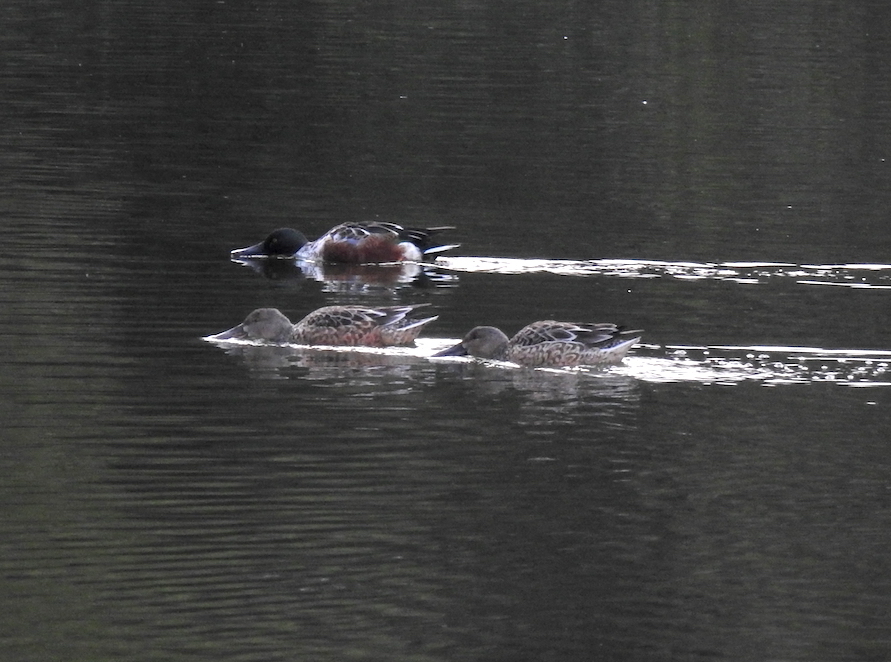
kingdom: Animalia
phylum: Chordata
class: Aves
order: Anseriformes
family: Anatidae
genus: Spatula
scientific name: Spatula clypeata
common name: Northern shoveler
